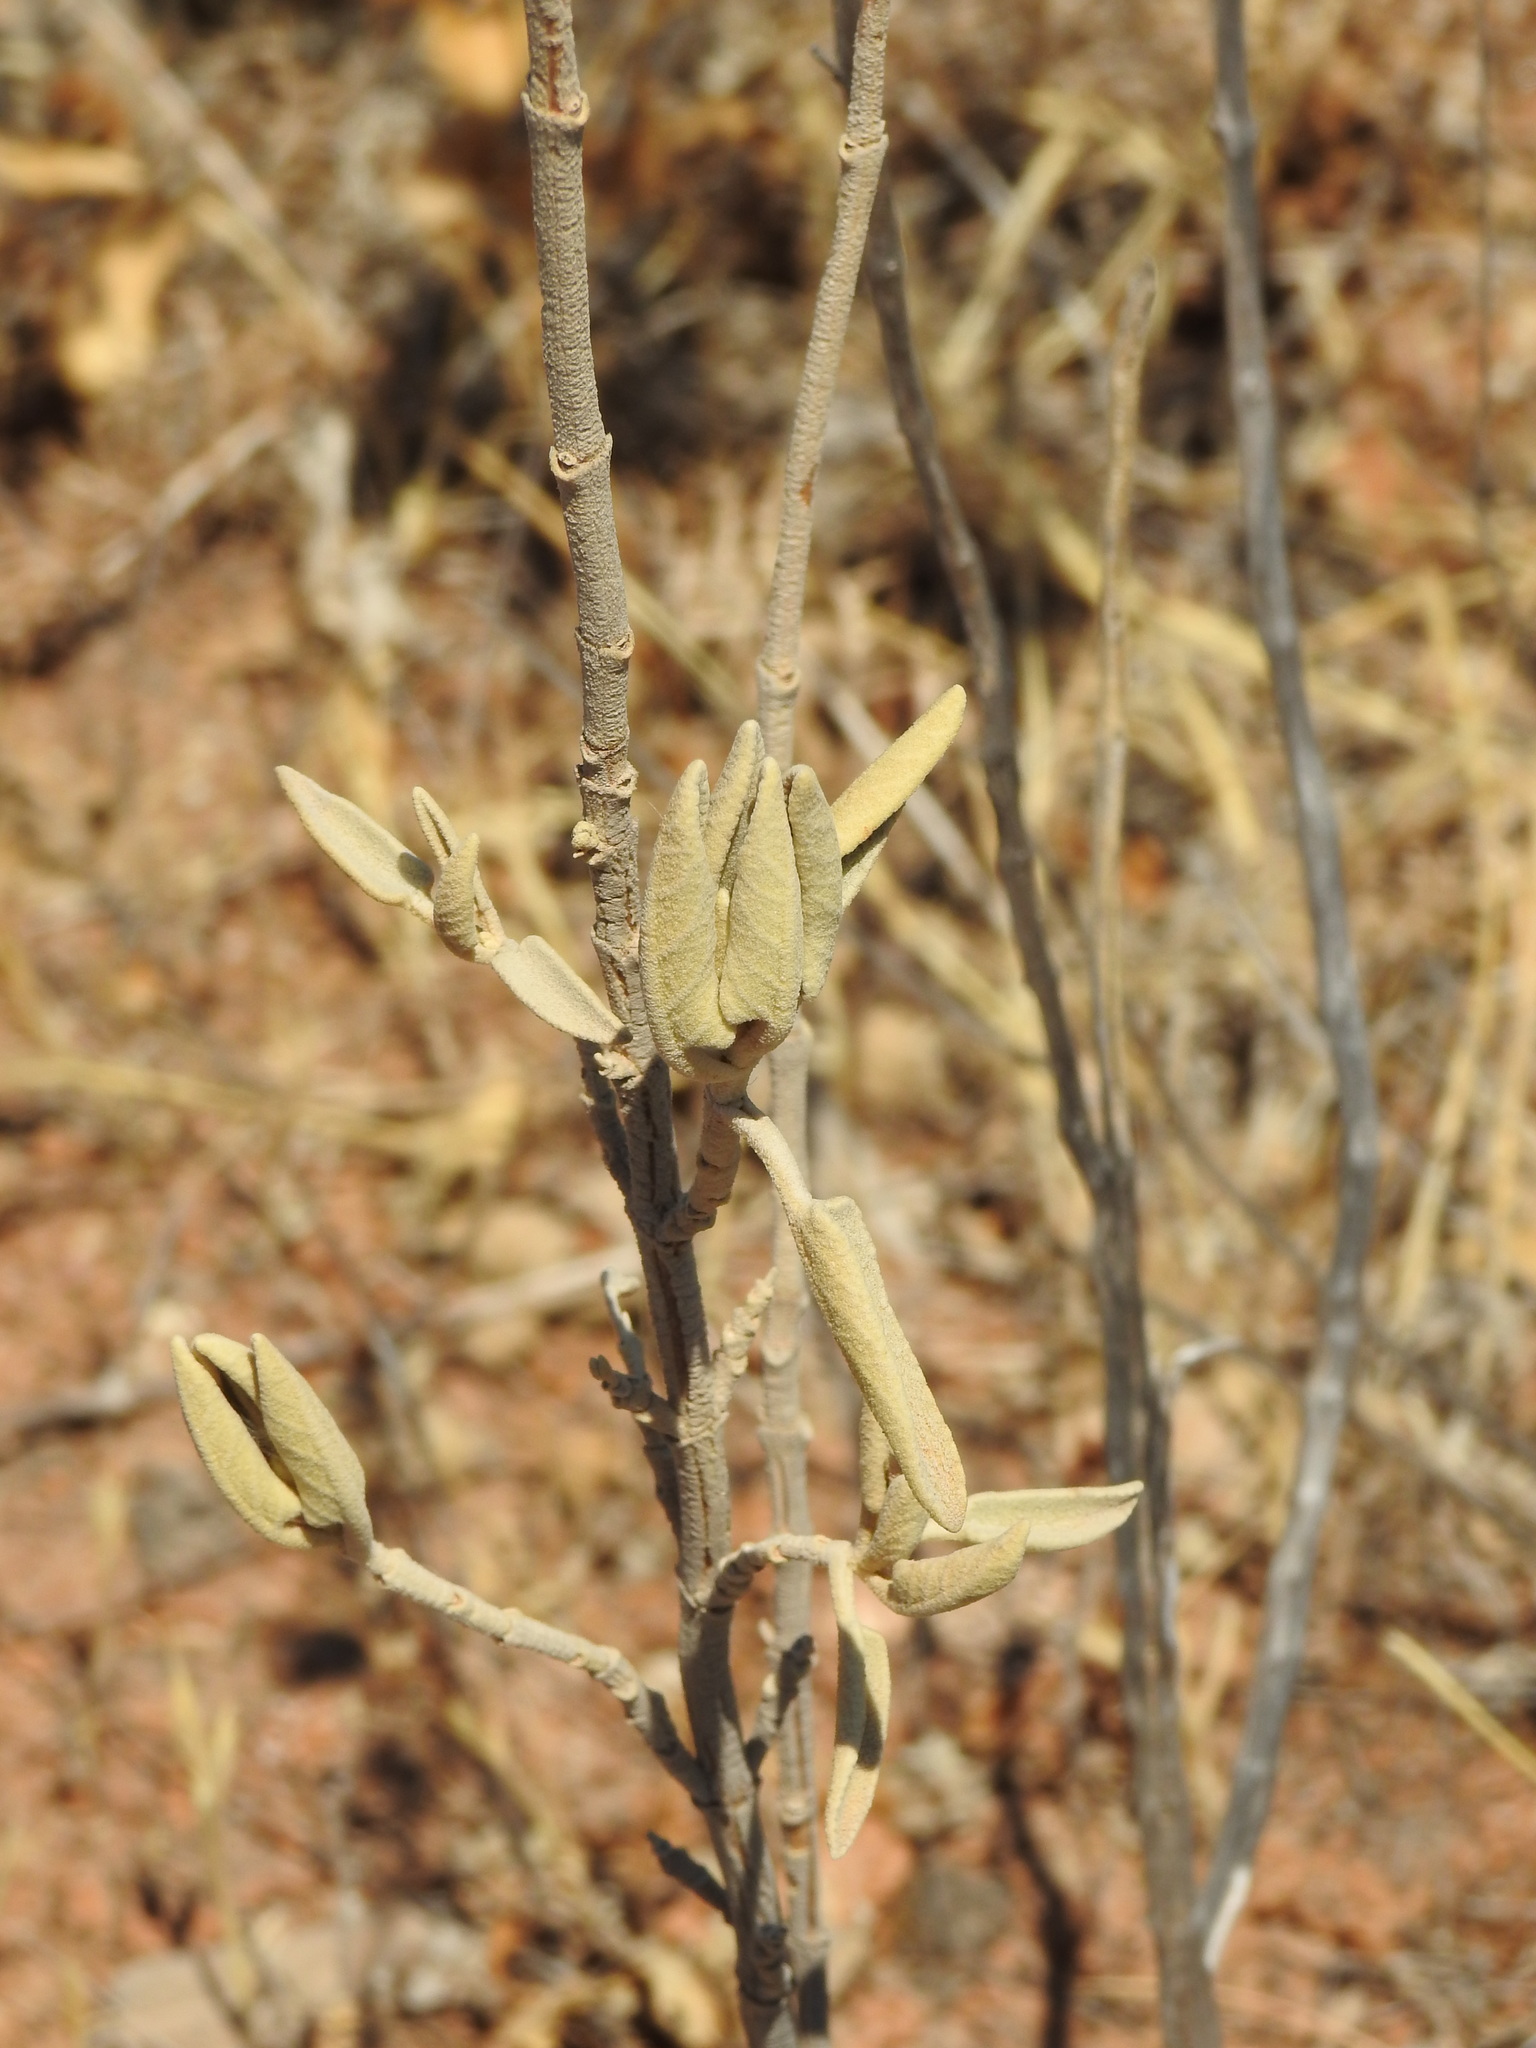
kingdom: Plantae
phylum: Tracheophyta
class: Magnoliopsida
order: Lamiales
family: Lamiaceae
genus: Phlomis
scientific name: Phlomis purpurea
